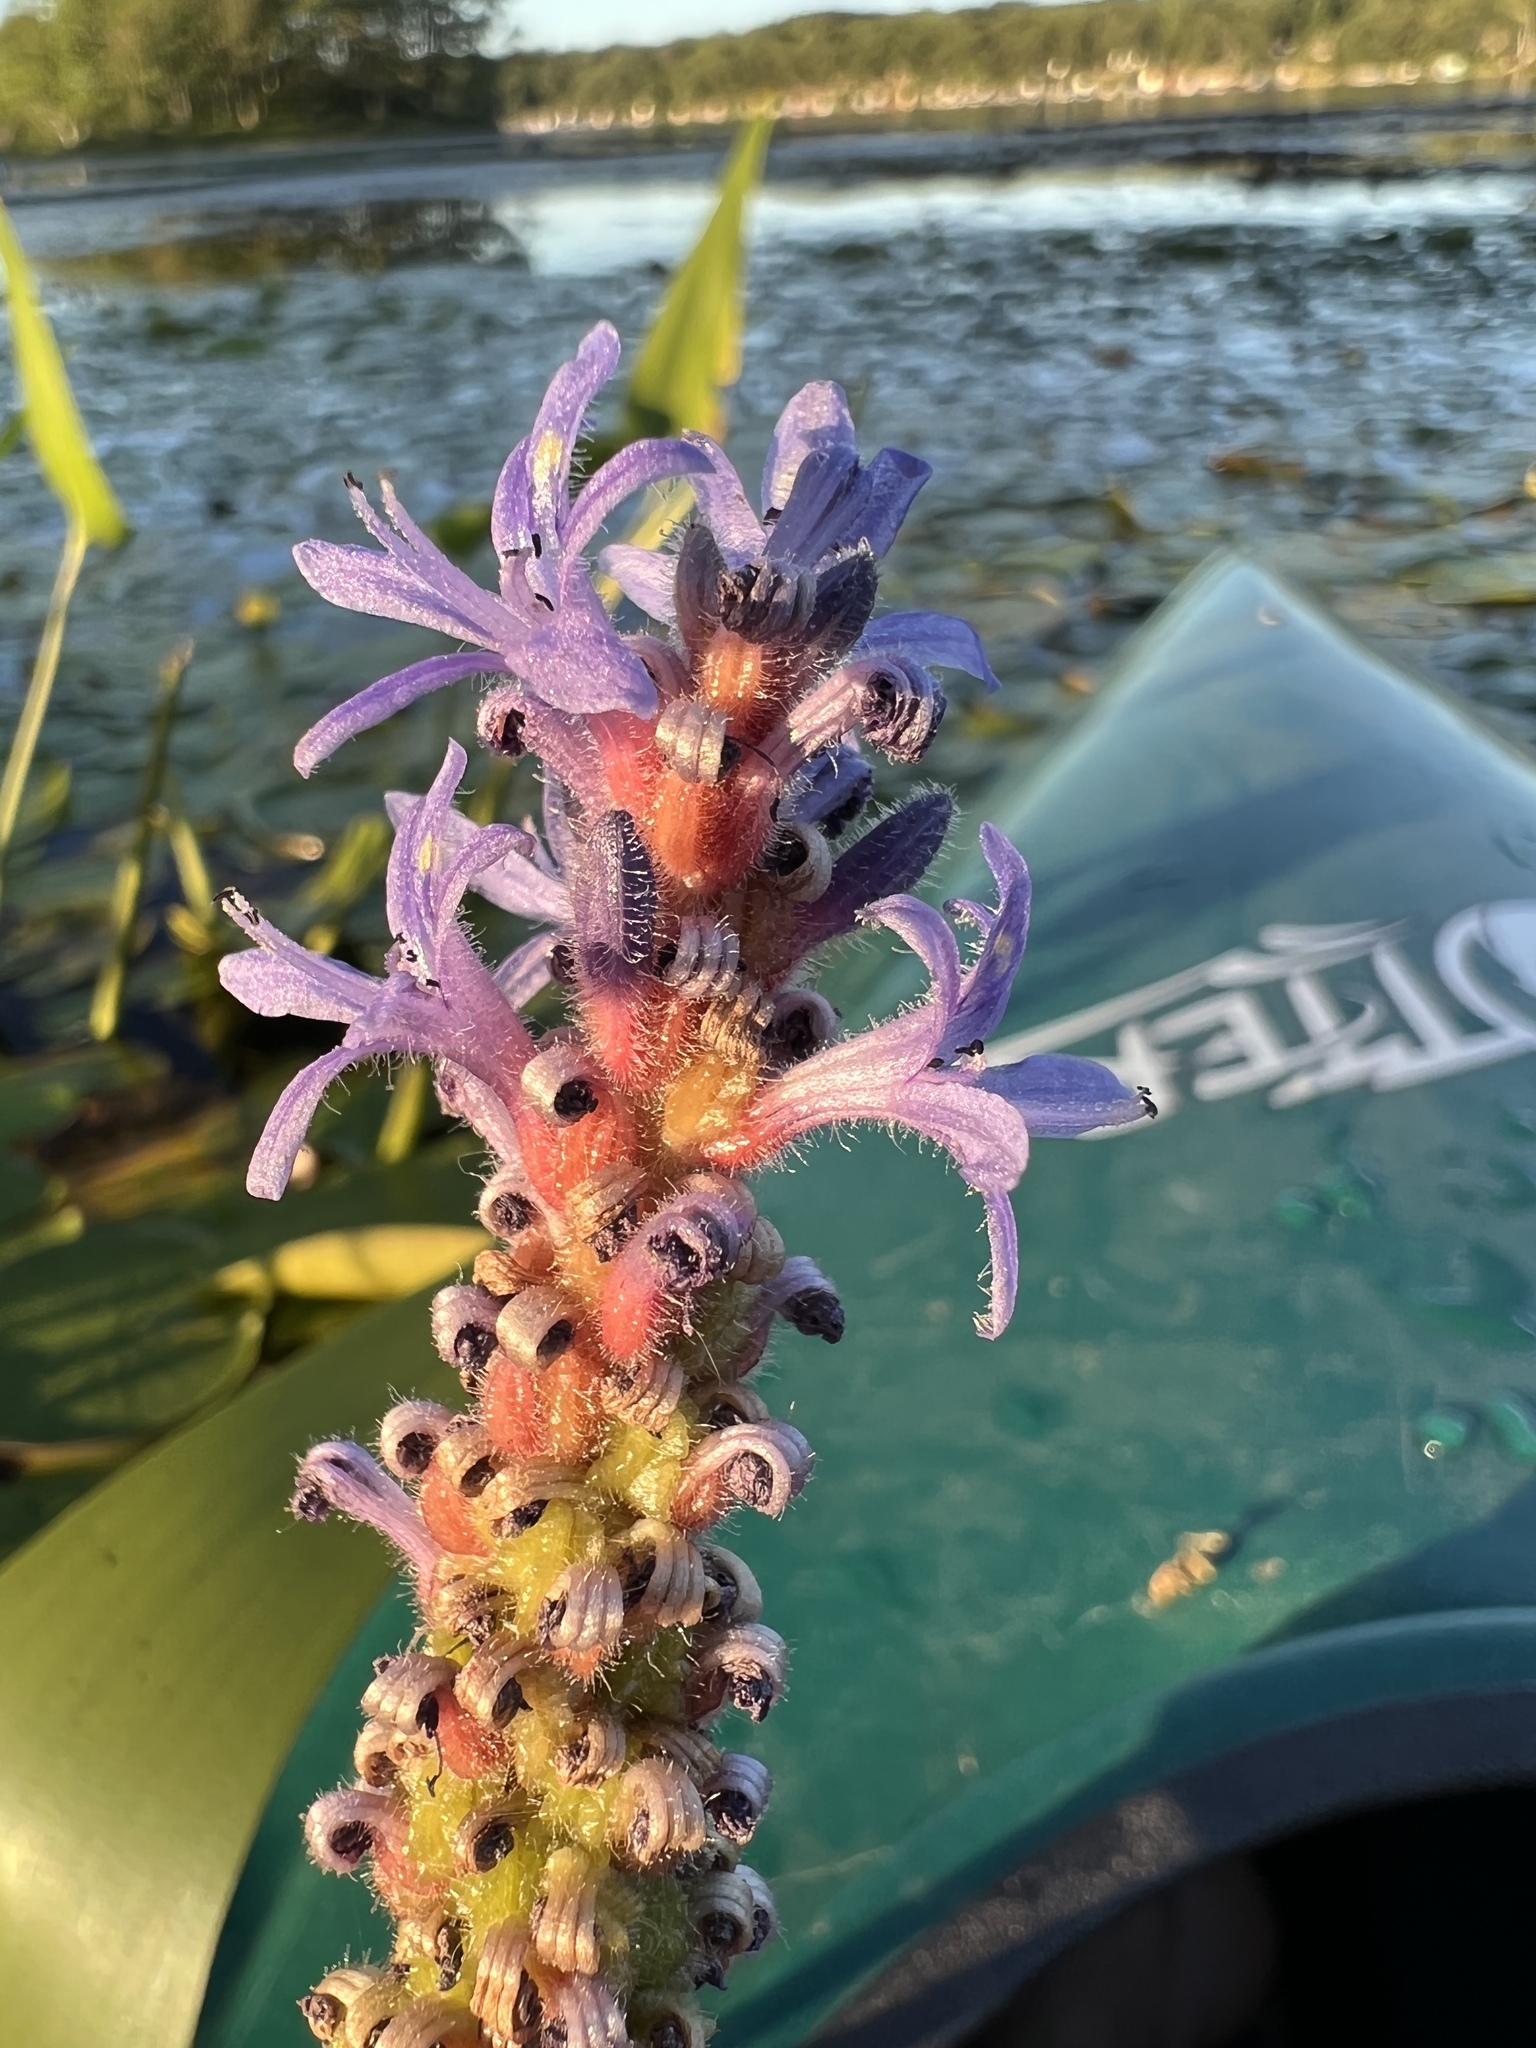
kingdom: Plantae
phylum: Tracheophyta
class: Liliopsida
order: Commelinales
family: Pontederiaceae
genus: Pontederia
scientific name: Pontederia cordata
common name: Pickerelweed
